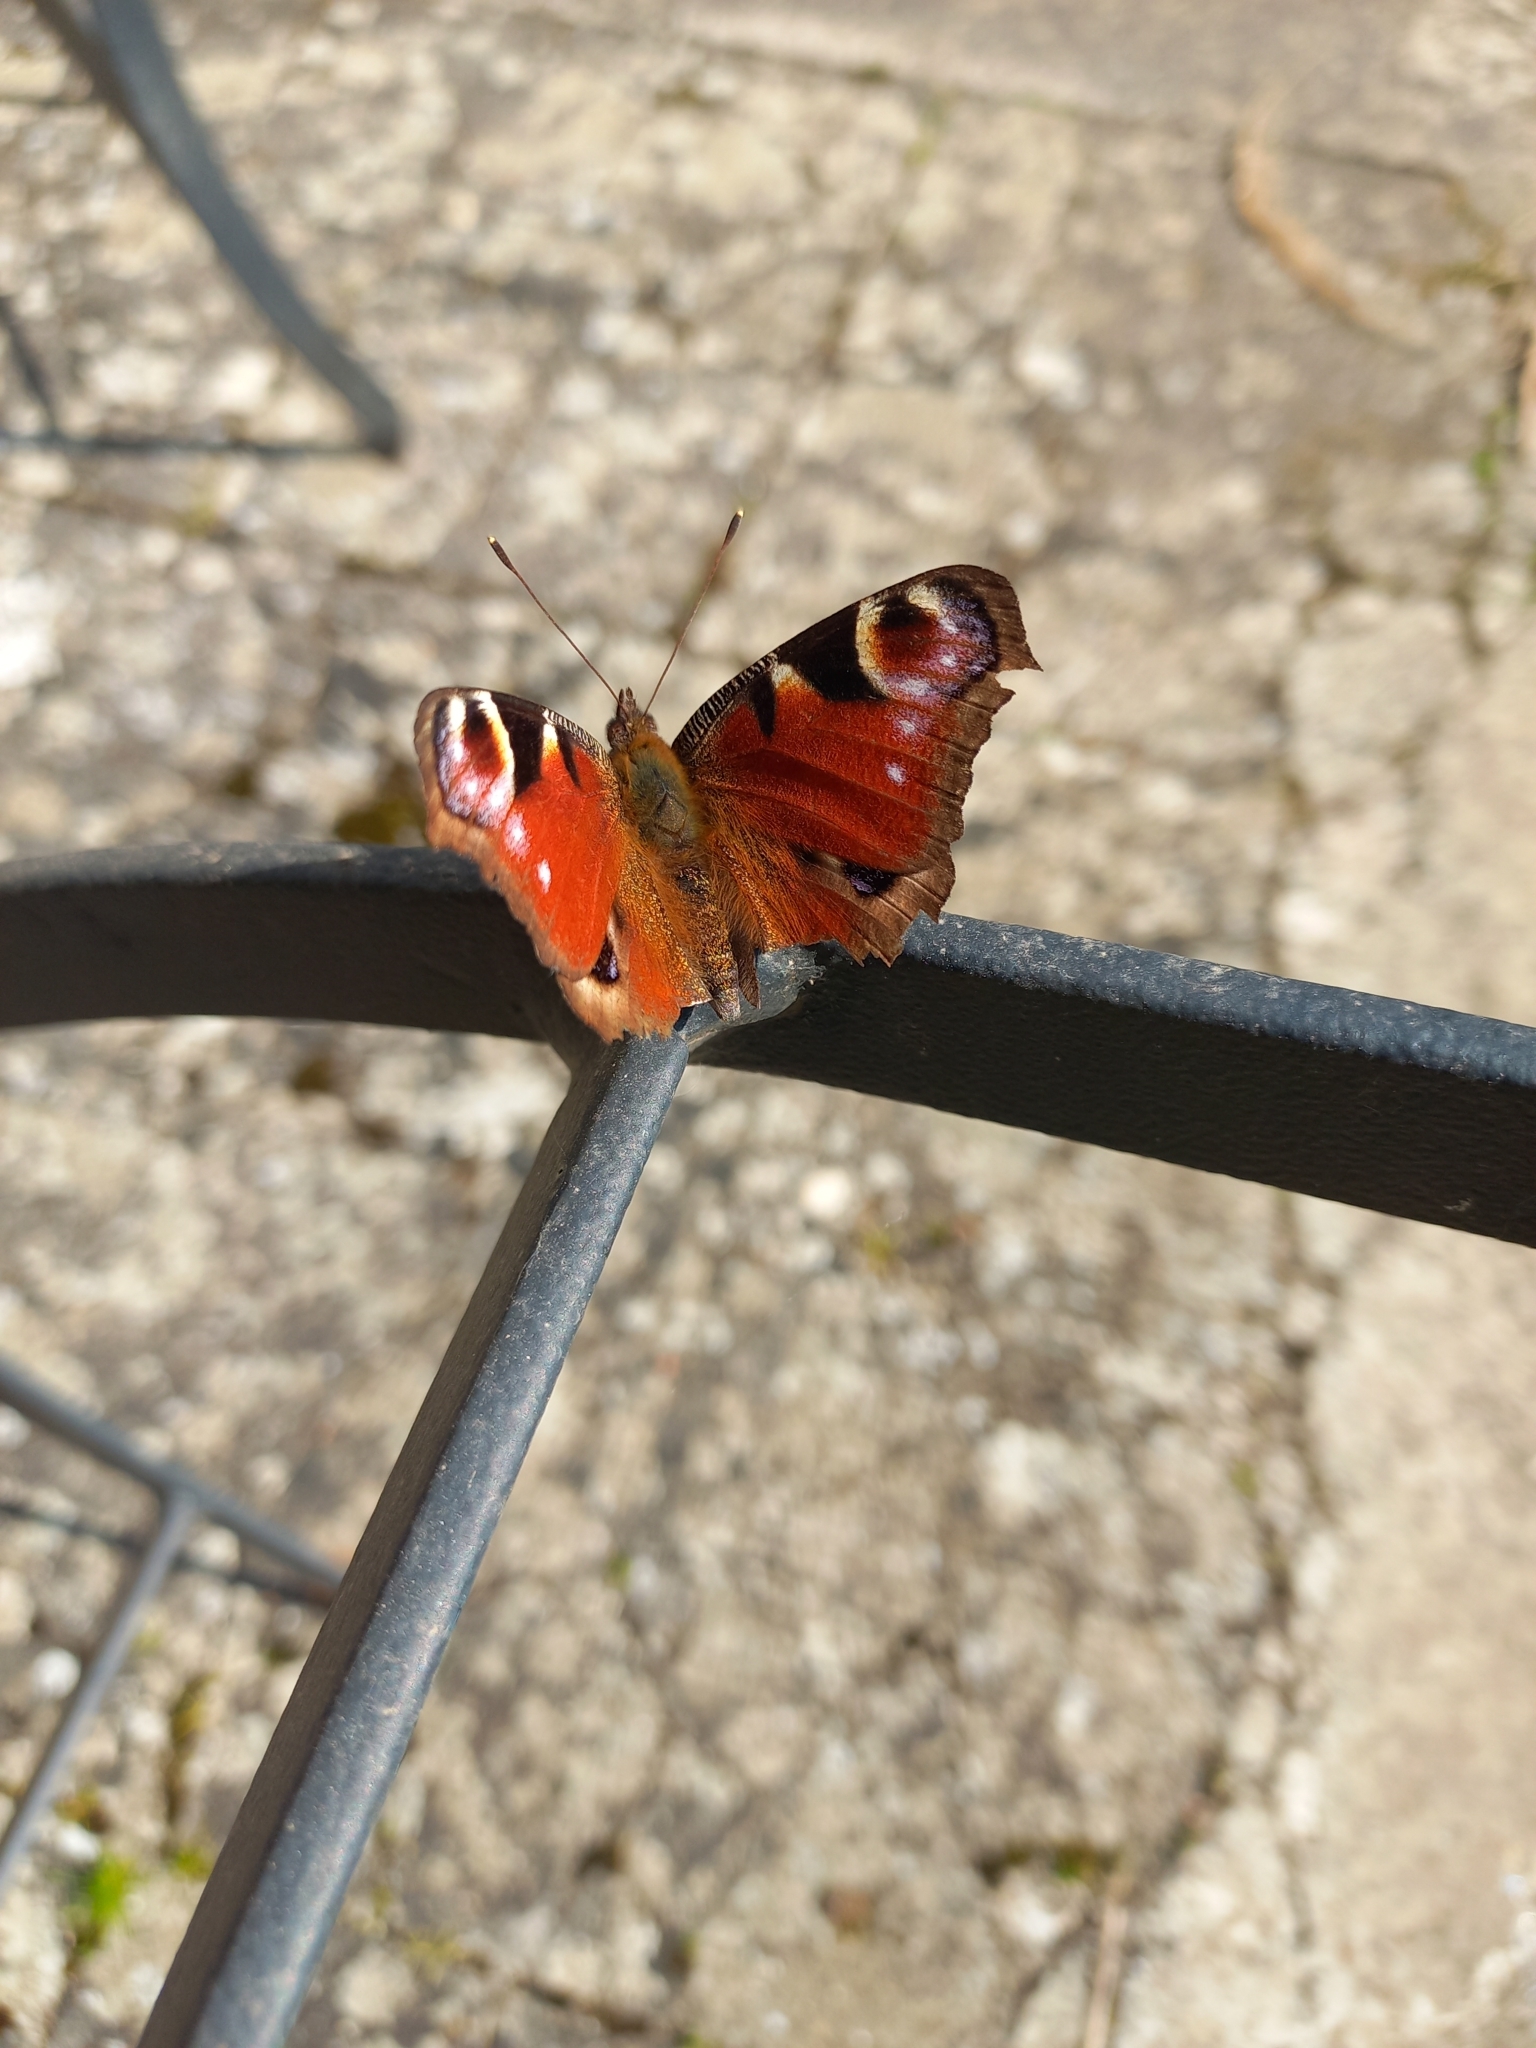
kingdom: Animalia
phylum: Arthropoda
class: Insecta
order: Lepidoptera
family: Nymphalidae
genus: Aglais
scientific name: Aglais io
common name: Peacock
